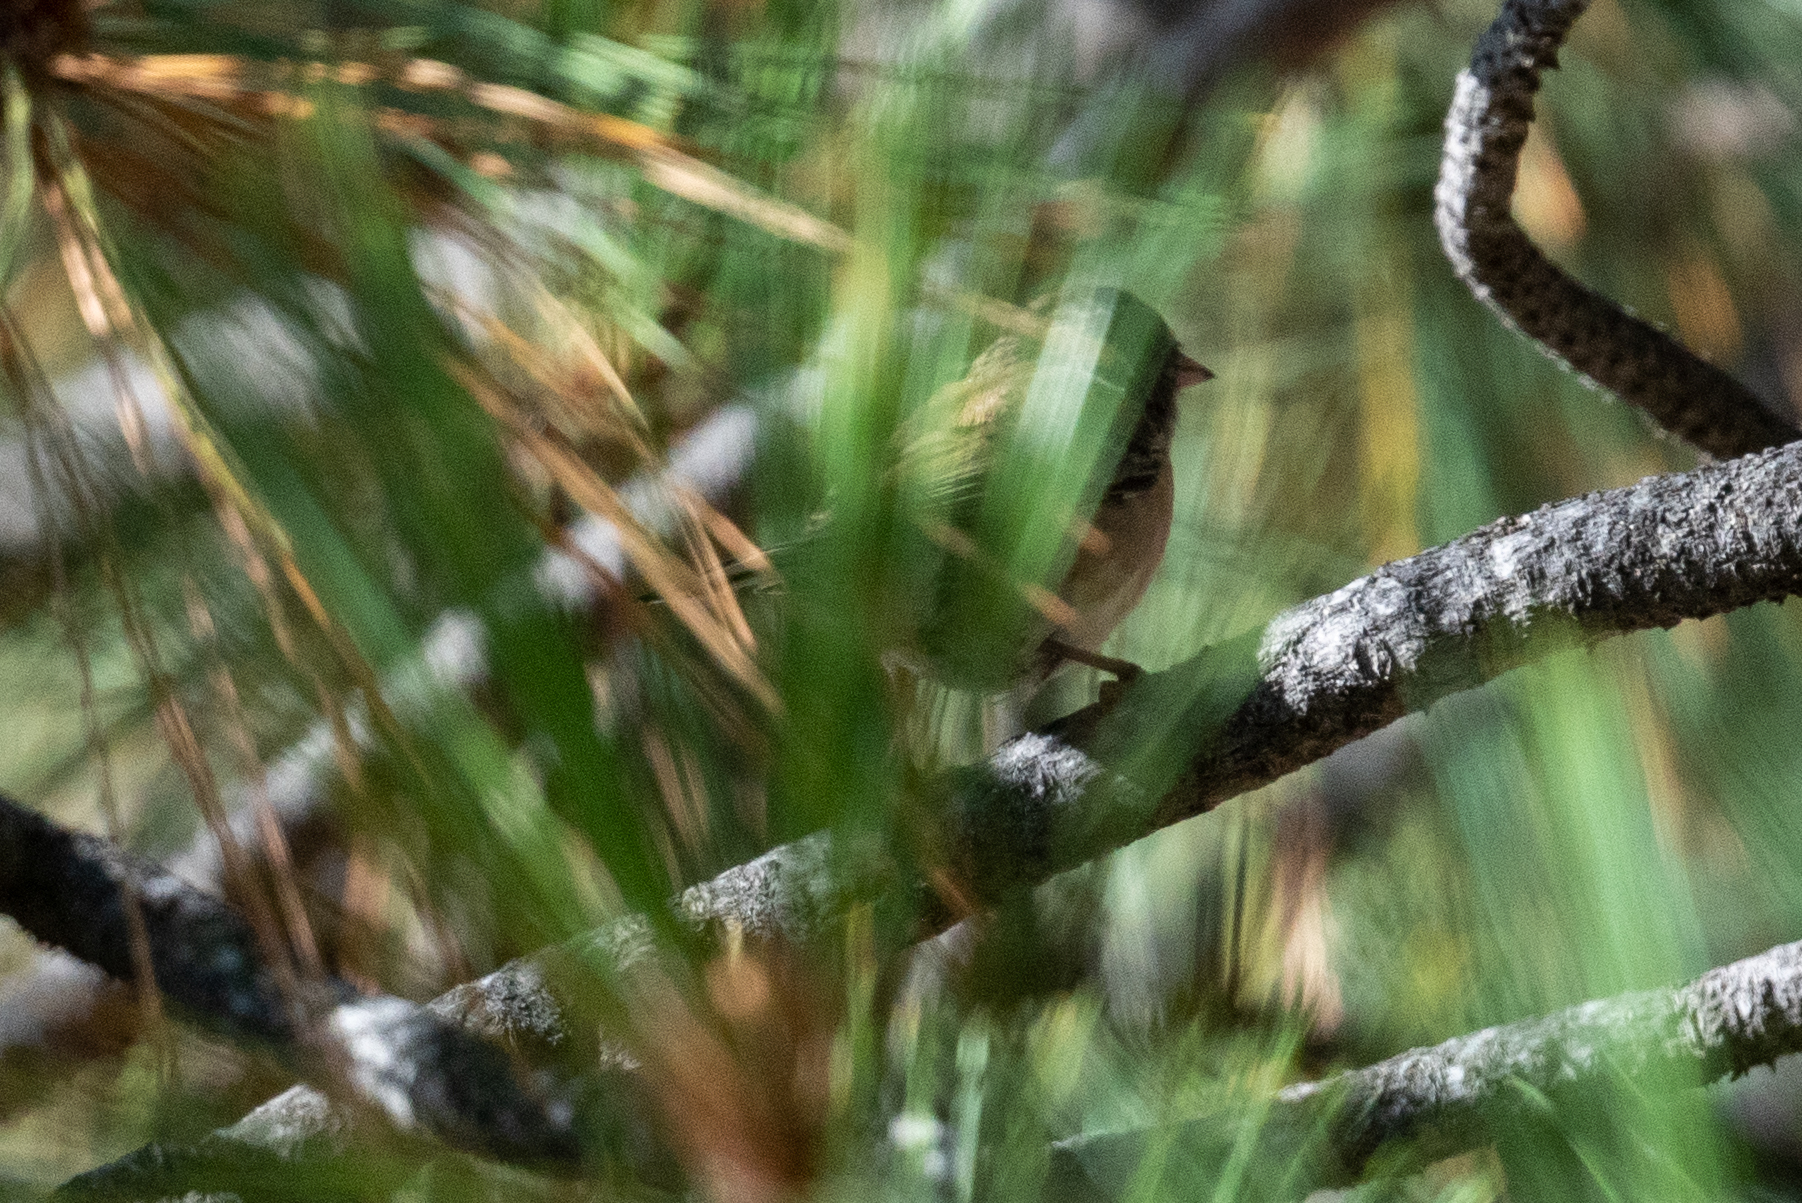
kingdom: Animalia
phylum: Chordata
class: Aves
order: Passeriformes
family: Passerellidae
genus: Junco
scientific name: Junco hyemalis
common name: Dark-eyed junco
